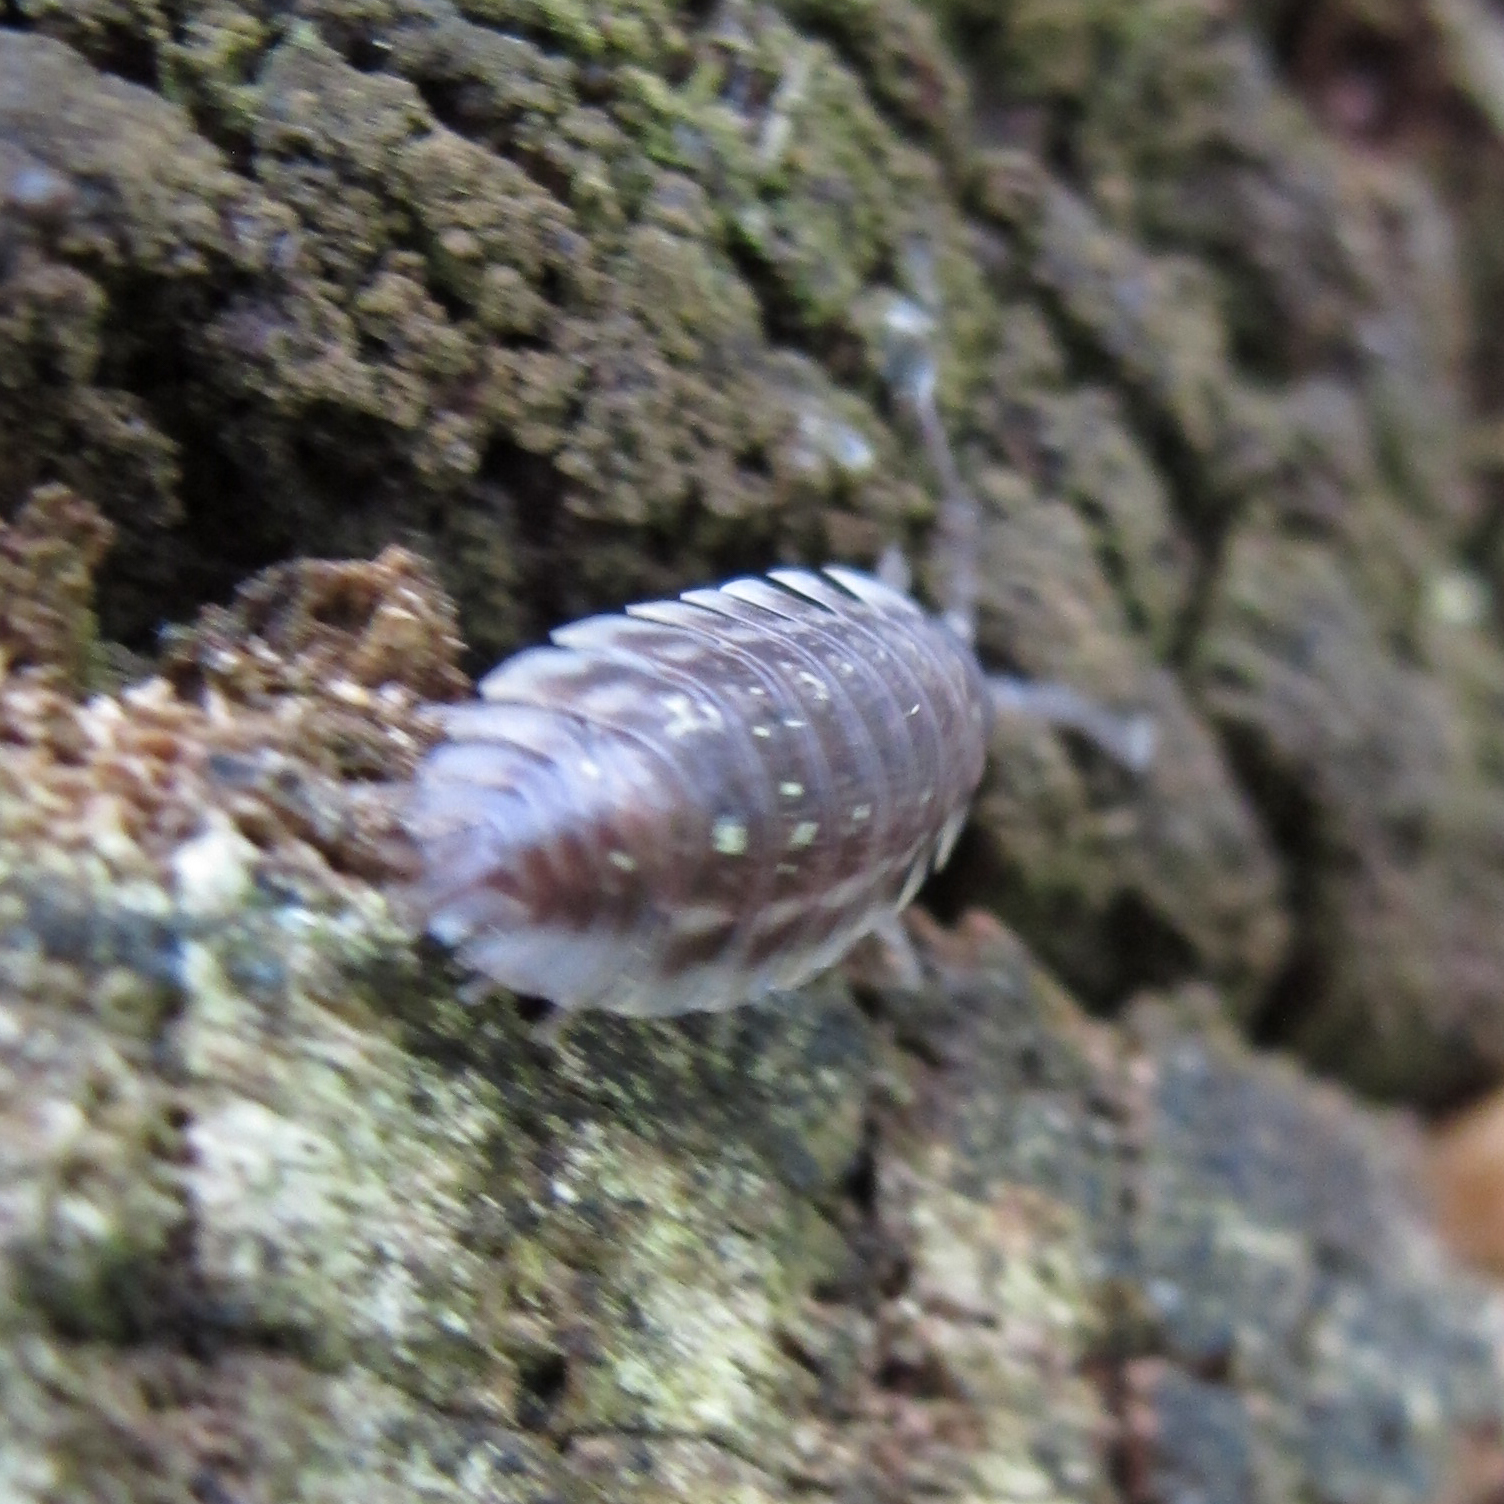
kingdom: Animalia
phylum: Arthropoda
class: Malacostraca
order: Isopoda
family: Oniscidae
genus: Oniscus
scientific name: Oniscus asellus
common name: Common shiny woodlouse
